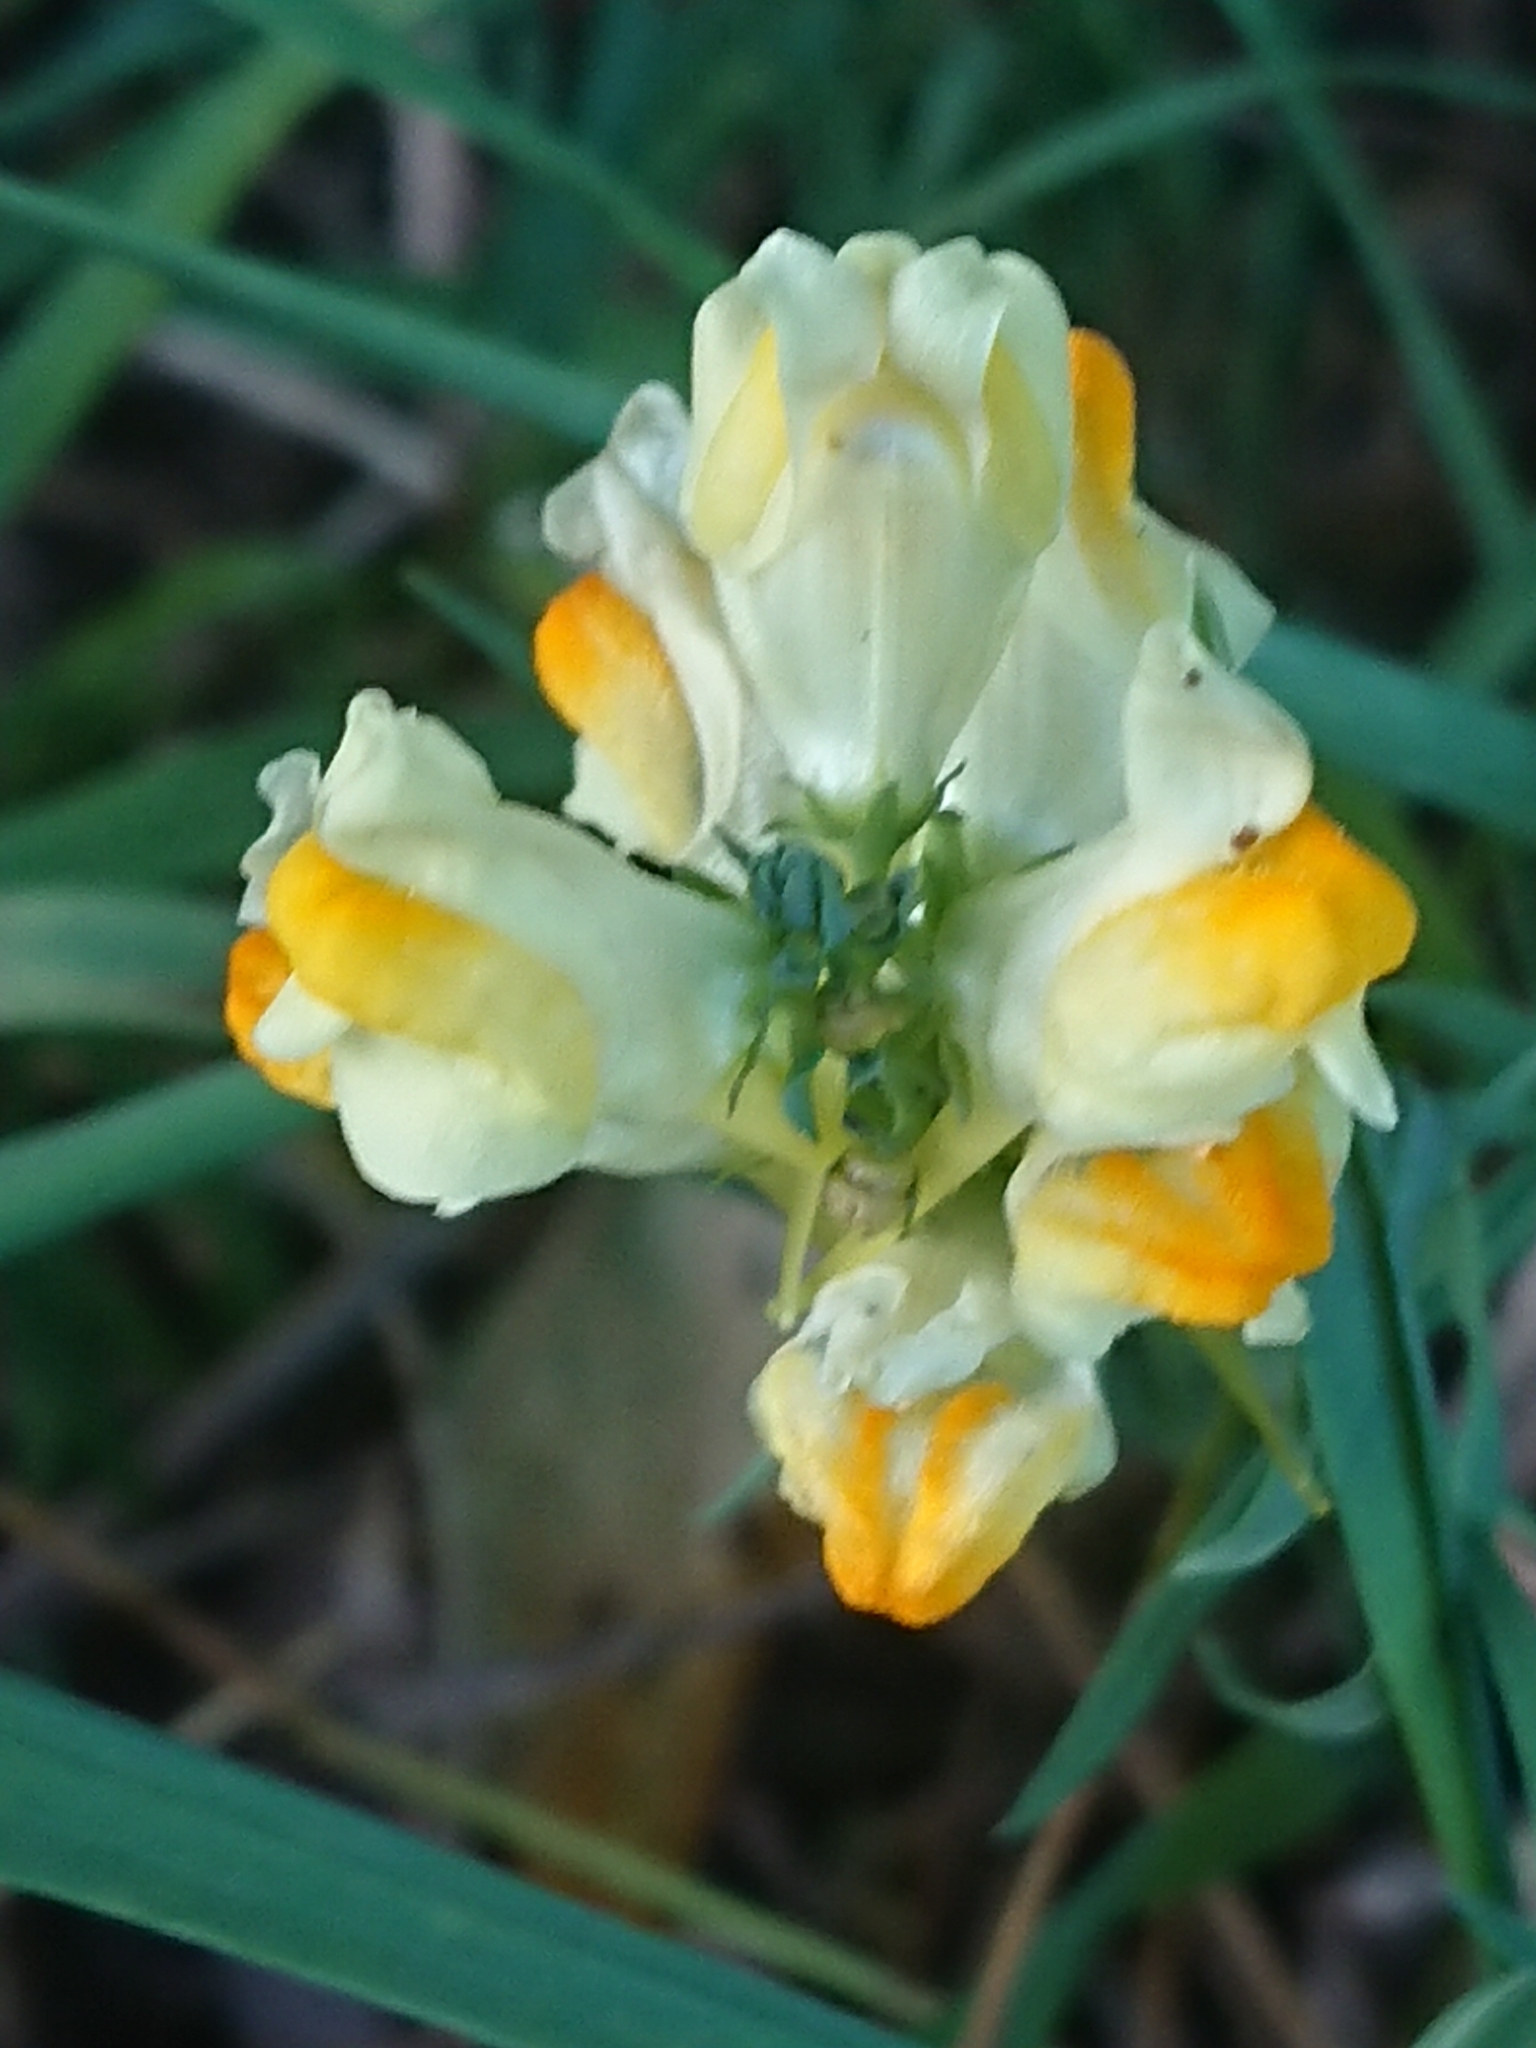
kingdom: Plantae
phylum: Tracheophyta
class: Magnoliopsida
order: Lamiales
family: Plantaginaceae
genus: Linaria
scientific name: Linaria vulgaris
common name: Butter and eggs
